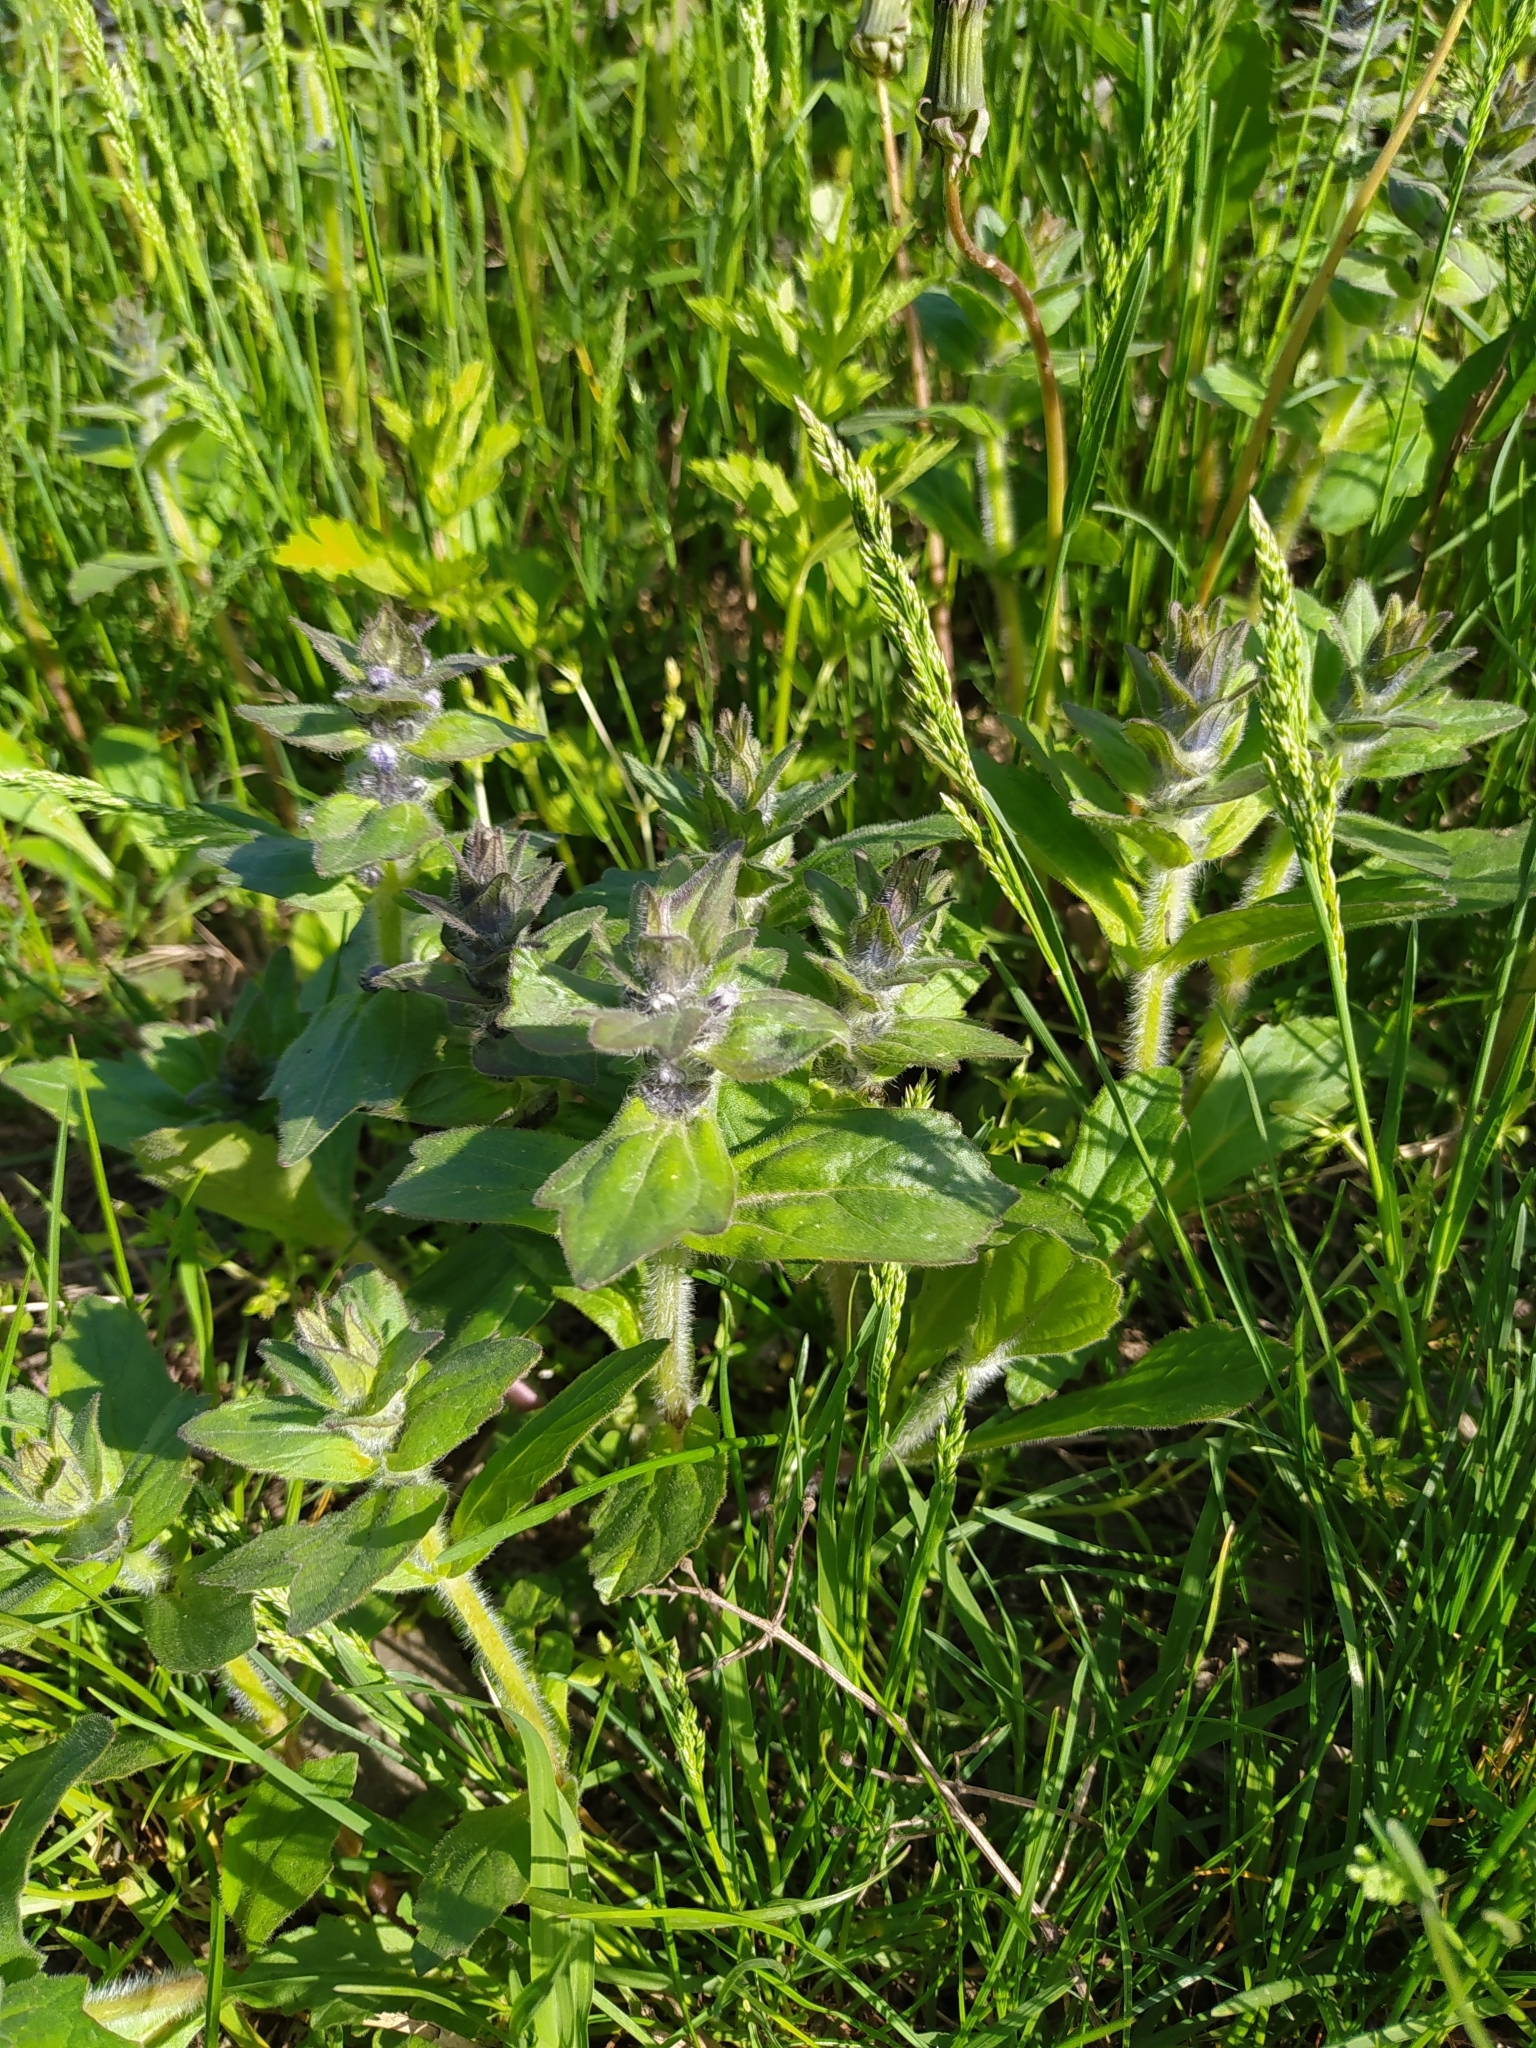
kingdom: Plantae
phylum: Tracheophyta
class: Magnoliopsida
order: Lamiales
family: Lamiaceae
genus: Ajuga
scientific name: Ajuga genevensis
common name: Blue bugle
